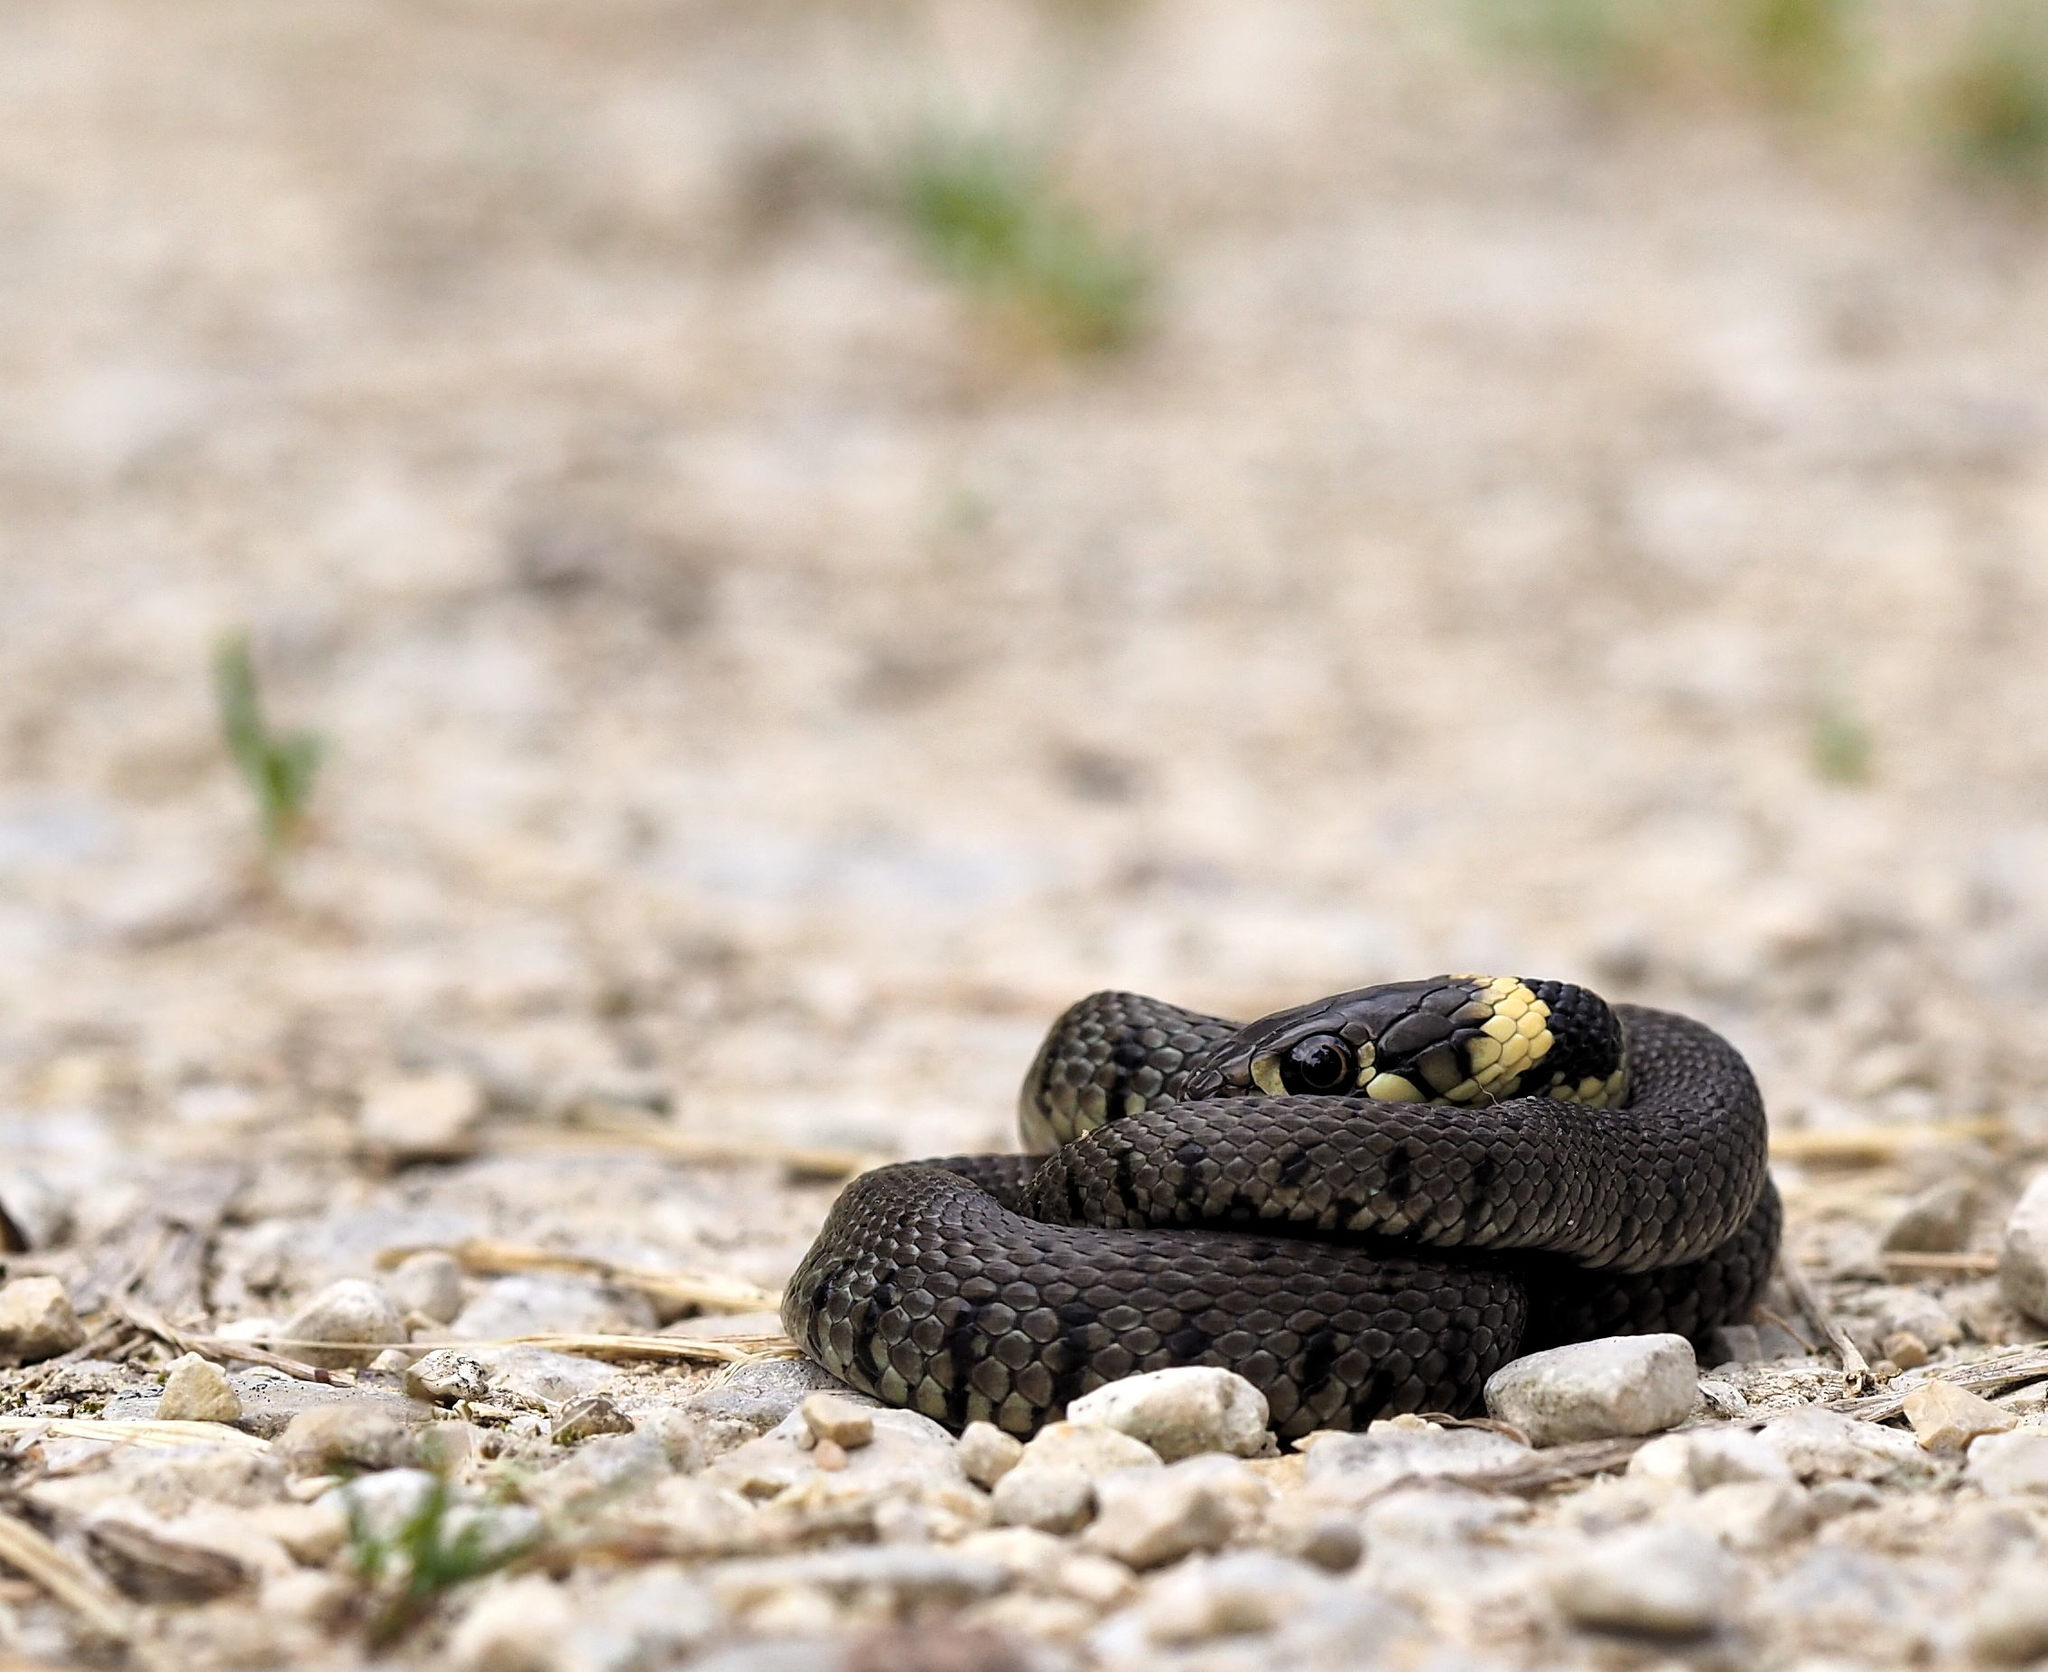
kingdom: Animalia
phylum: Chordata
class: Squamata
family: Colubridae
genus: Natrix
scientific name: Natrix helvetica
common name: Banded grass snake
